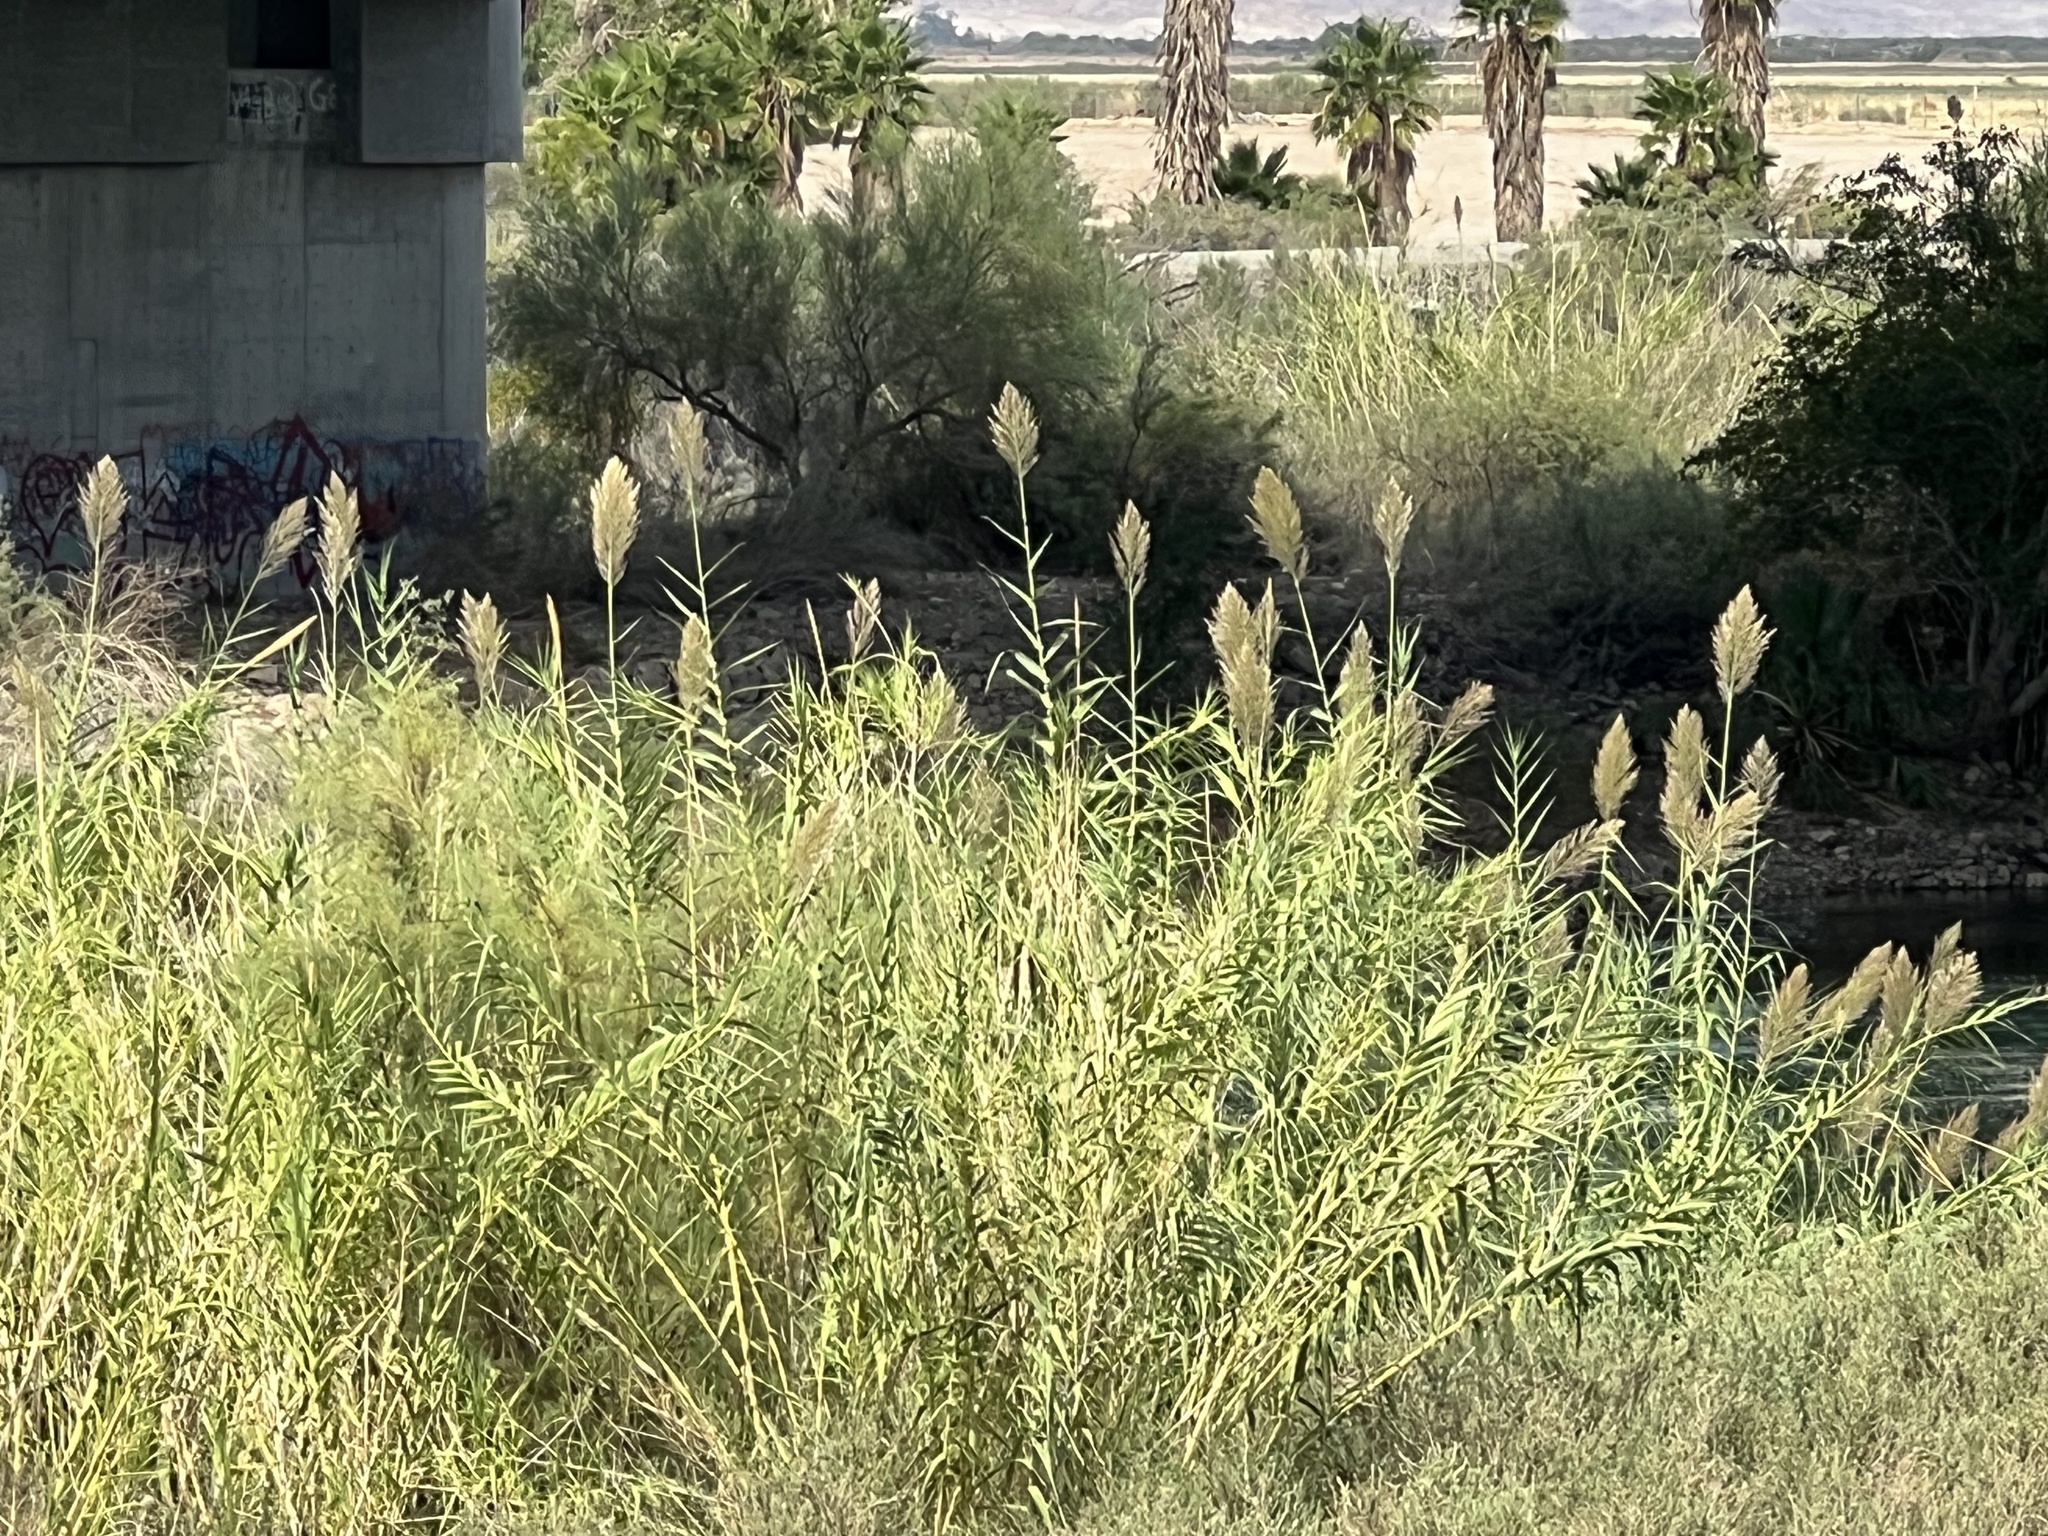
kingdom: Plantae
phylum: Tracheophyta
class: Liliopsida
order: Poales
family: Poaceae
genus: Arundo
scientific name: Arundo donax
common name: Giant reed
